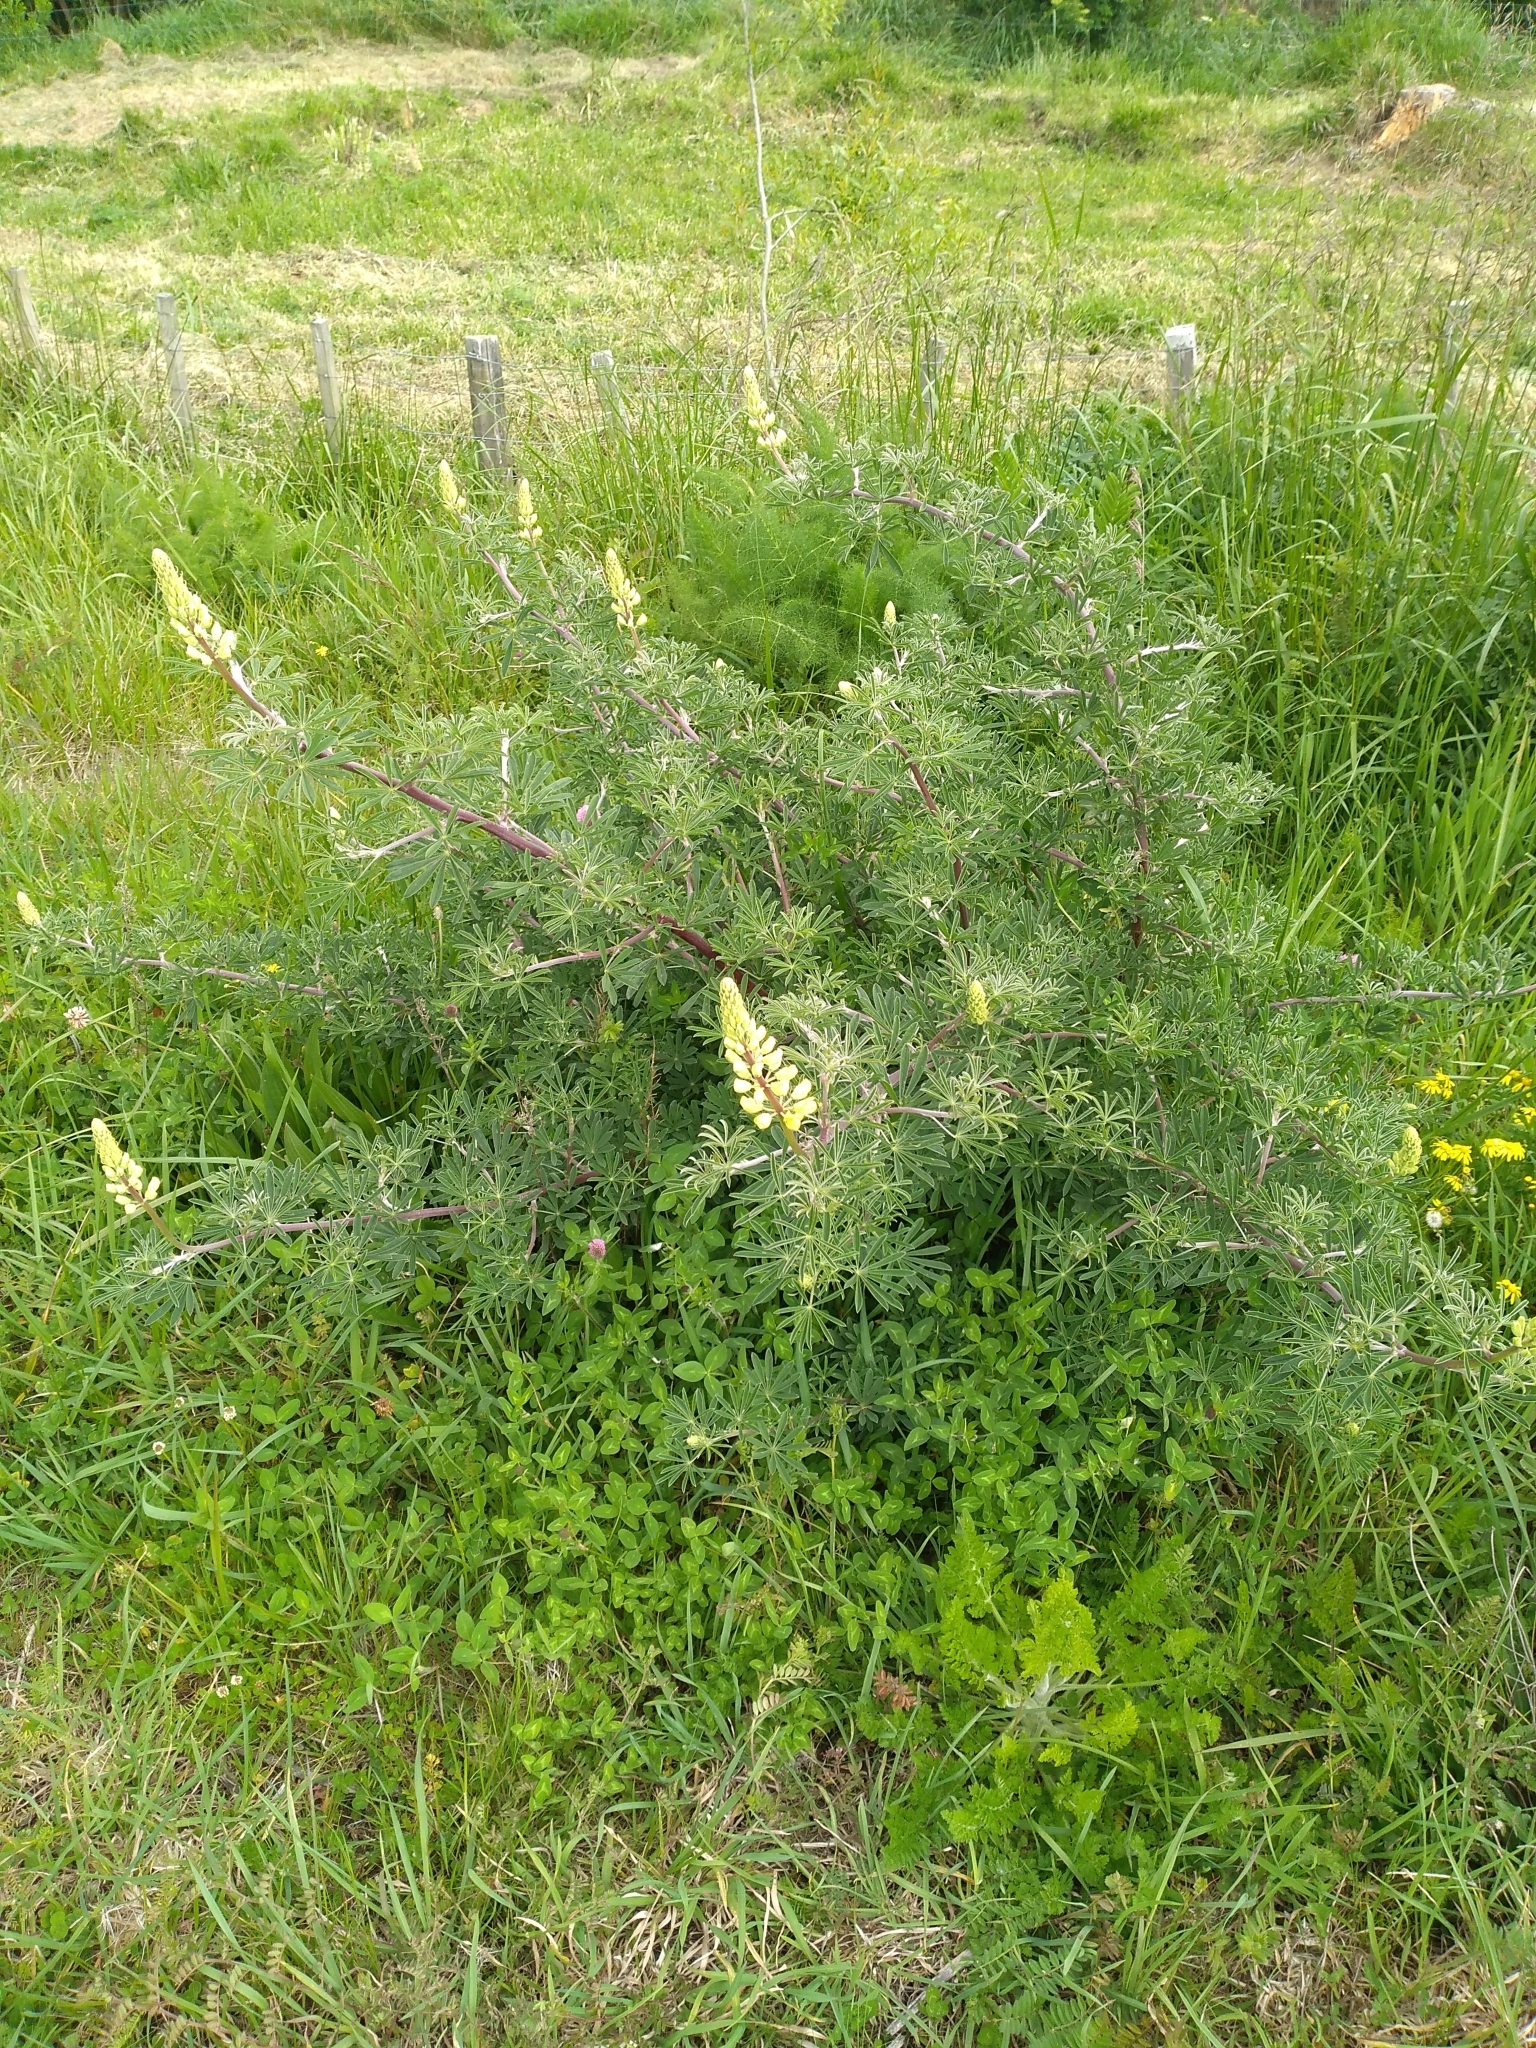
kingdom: Plantae
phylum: Tracheophyta
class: Magnoliopsida
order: Fabales
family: Fabaceae
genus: Lupinus
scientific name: Lupinus arboreus
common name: Yellow bush lupine
